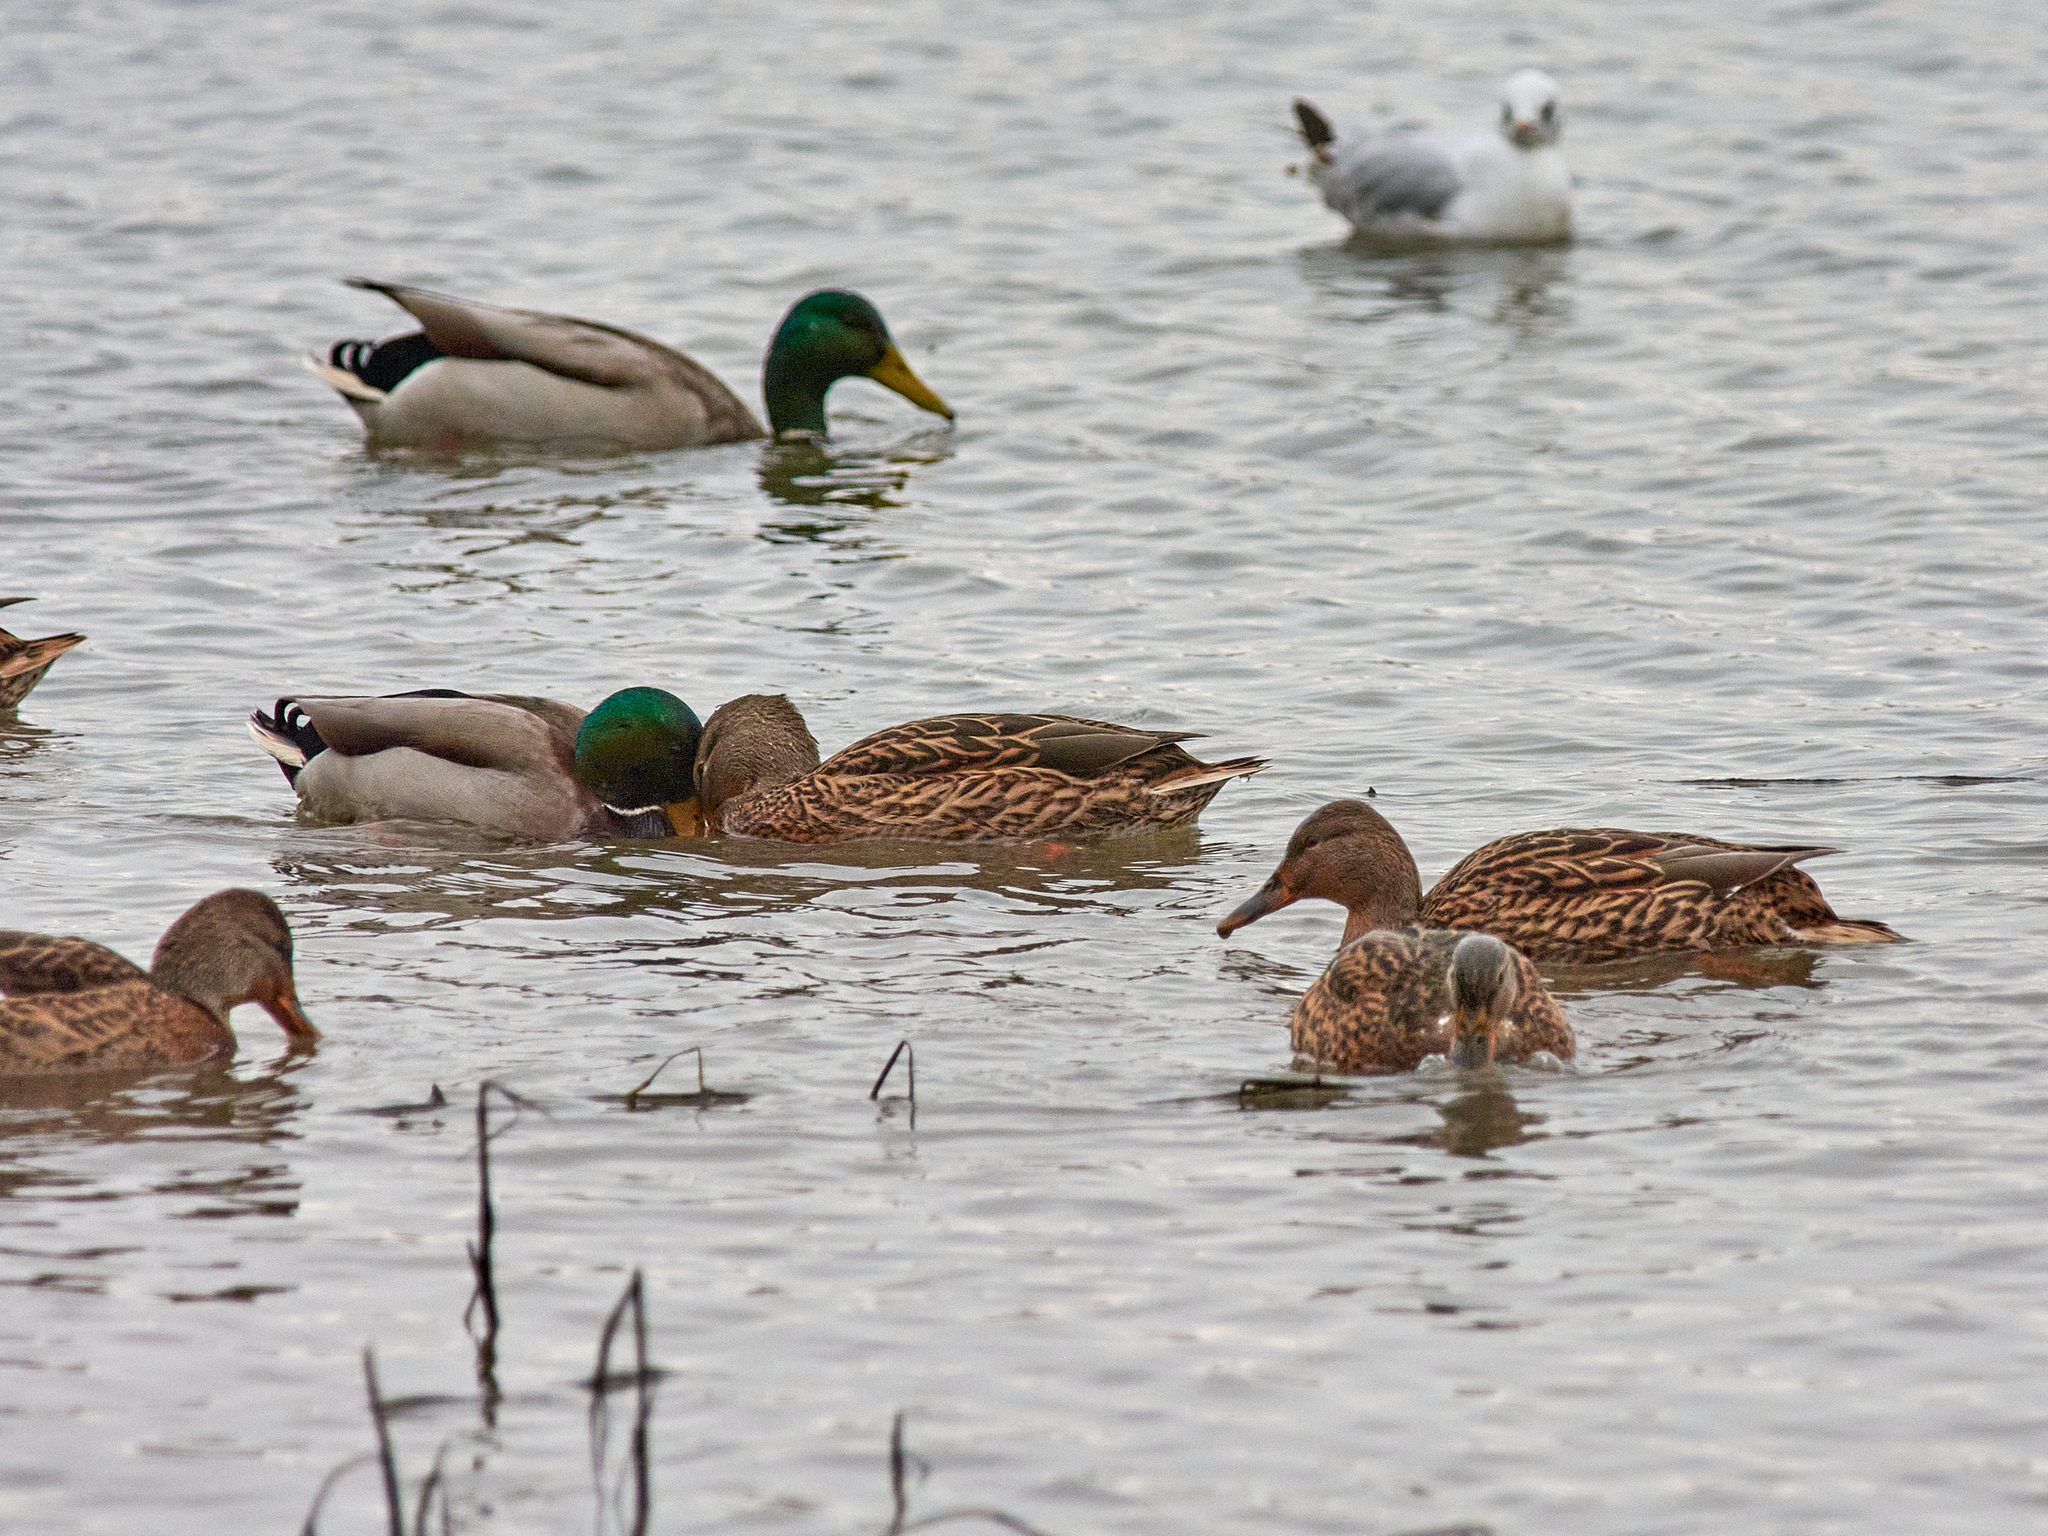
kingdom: Animalia
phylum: Chordata
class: Aves
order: Anseriformes
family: Anatidae
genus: Anas
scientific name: Anas platyrhynchos
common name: Mallard
